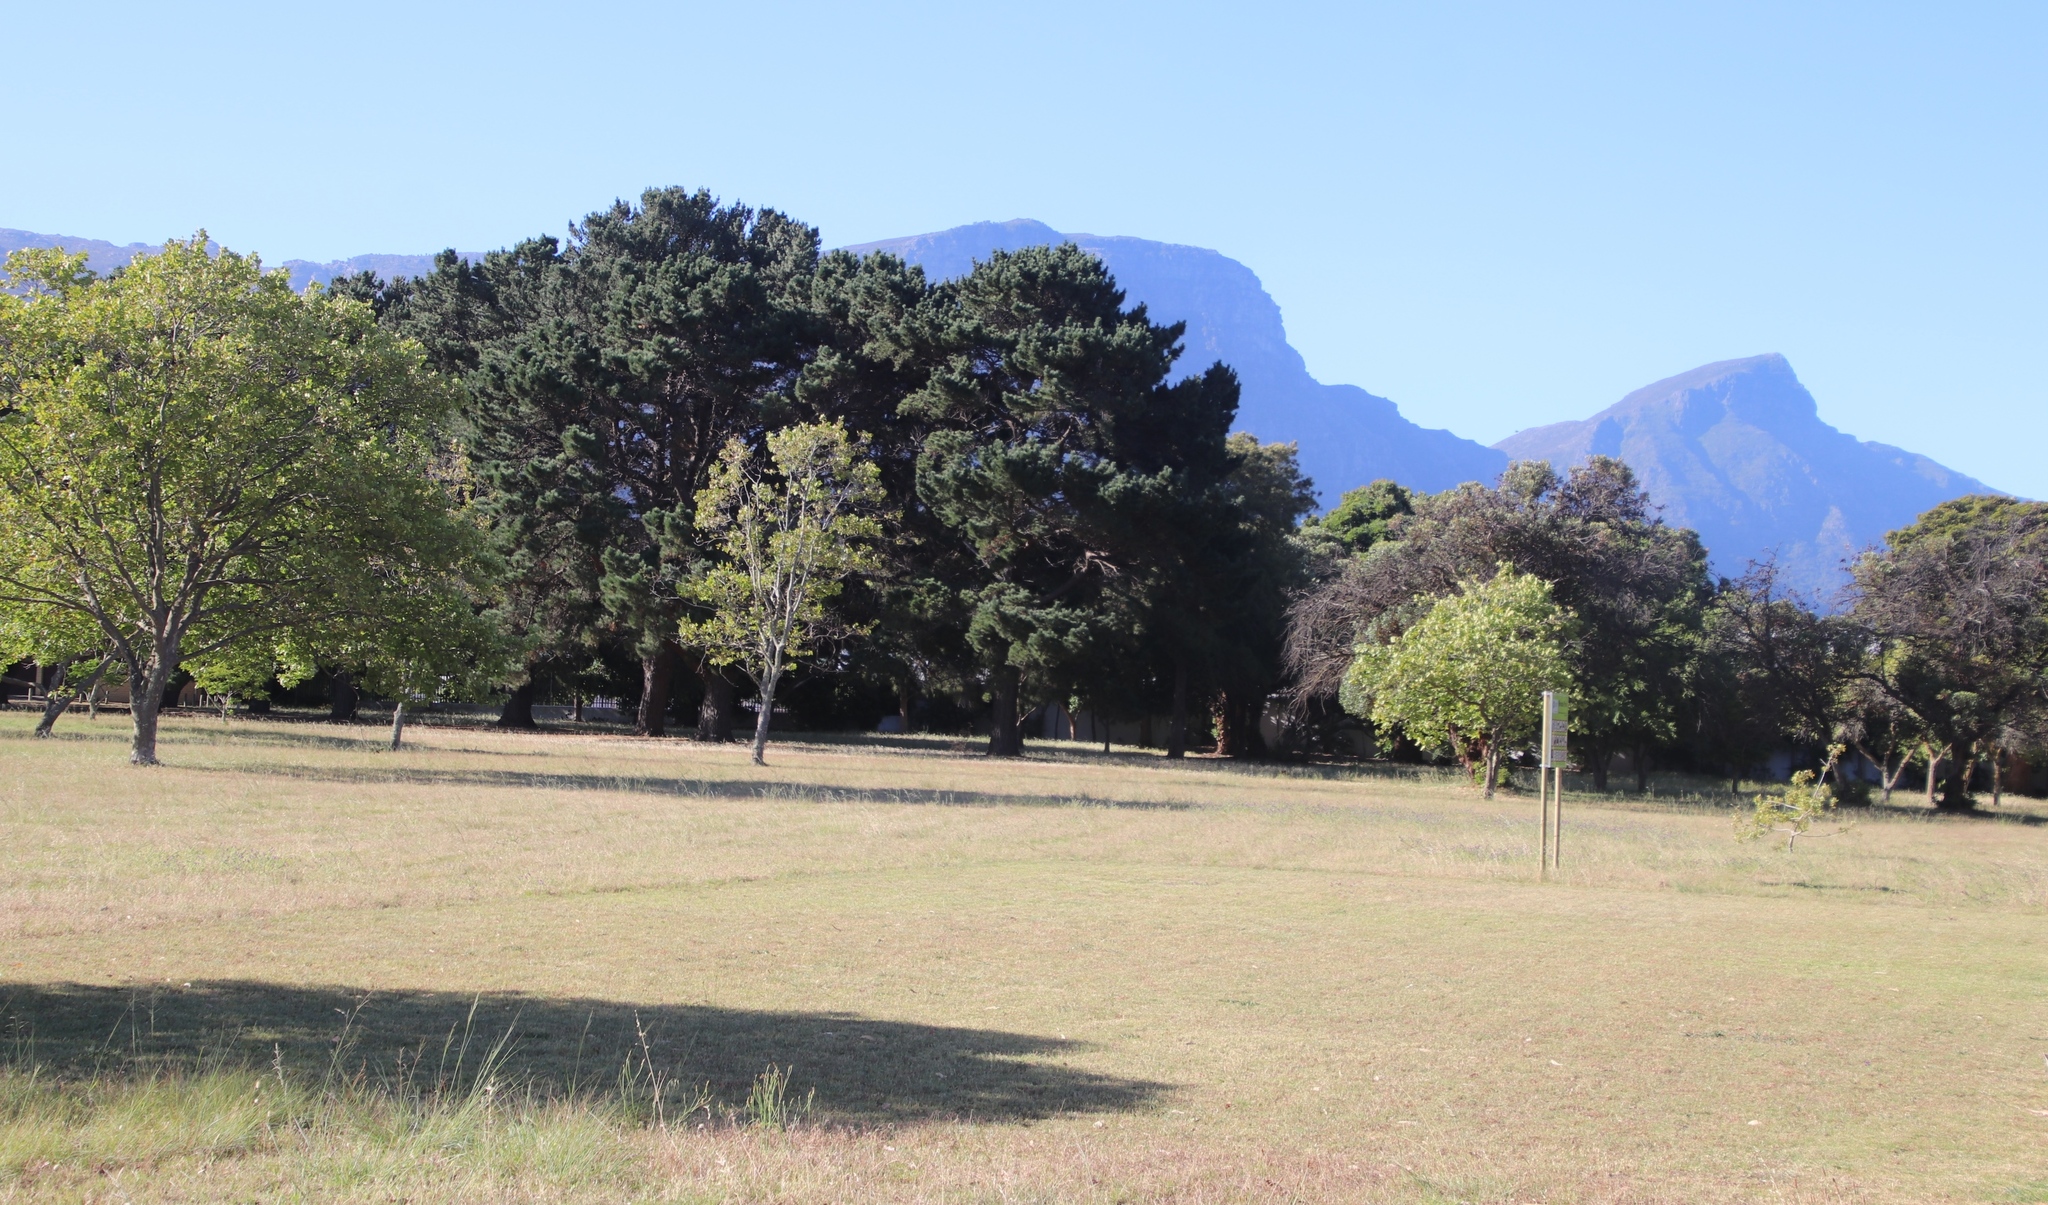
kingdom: Plantae
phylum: Tracheophyta
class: Liliopsida
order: Poales
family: Poaceae
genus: Cynodon
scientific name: Cynodon dactylon
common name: Bermuda grass
